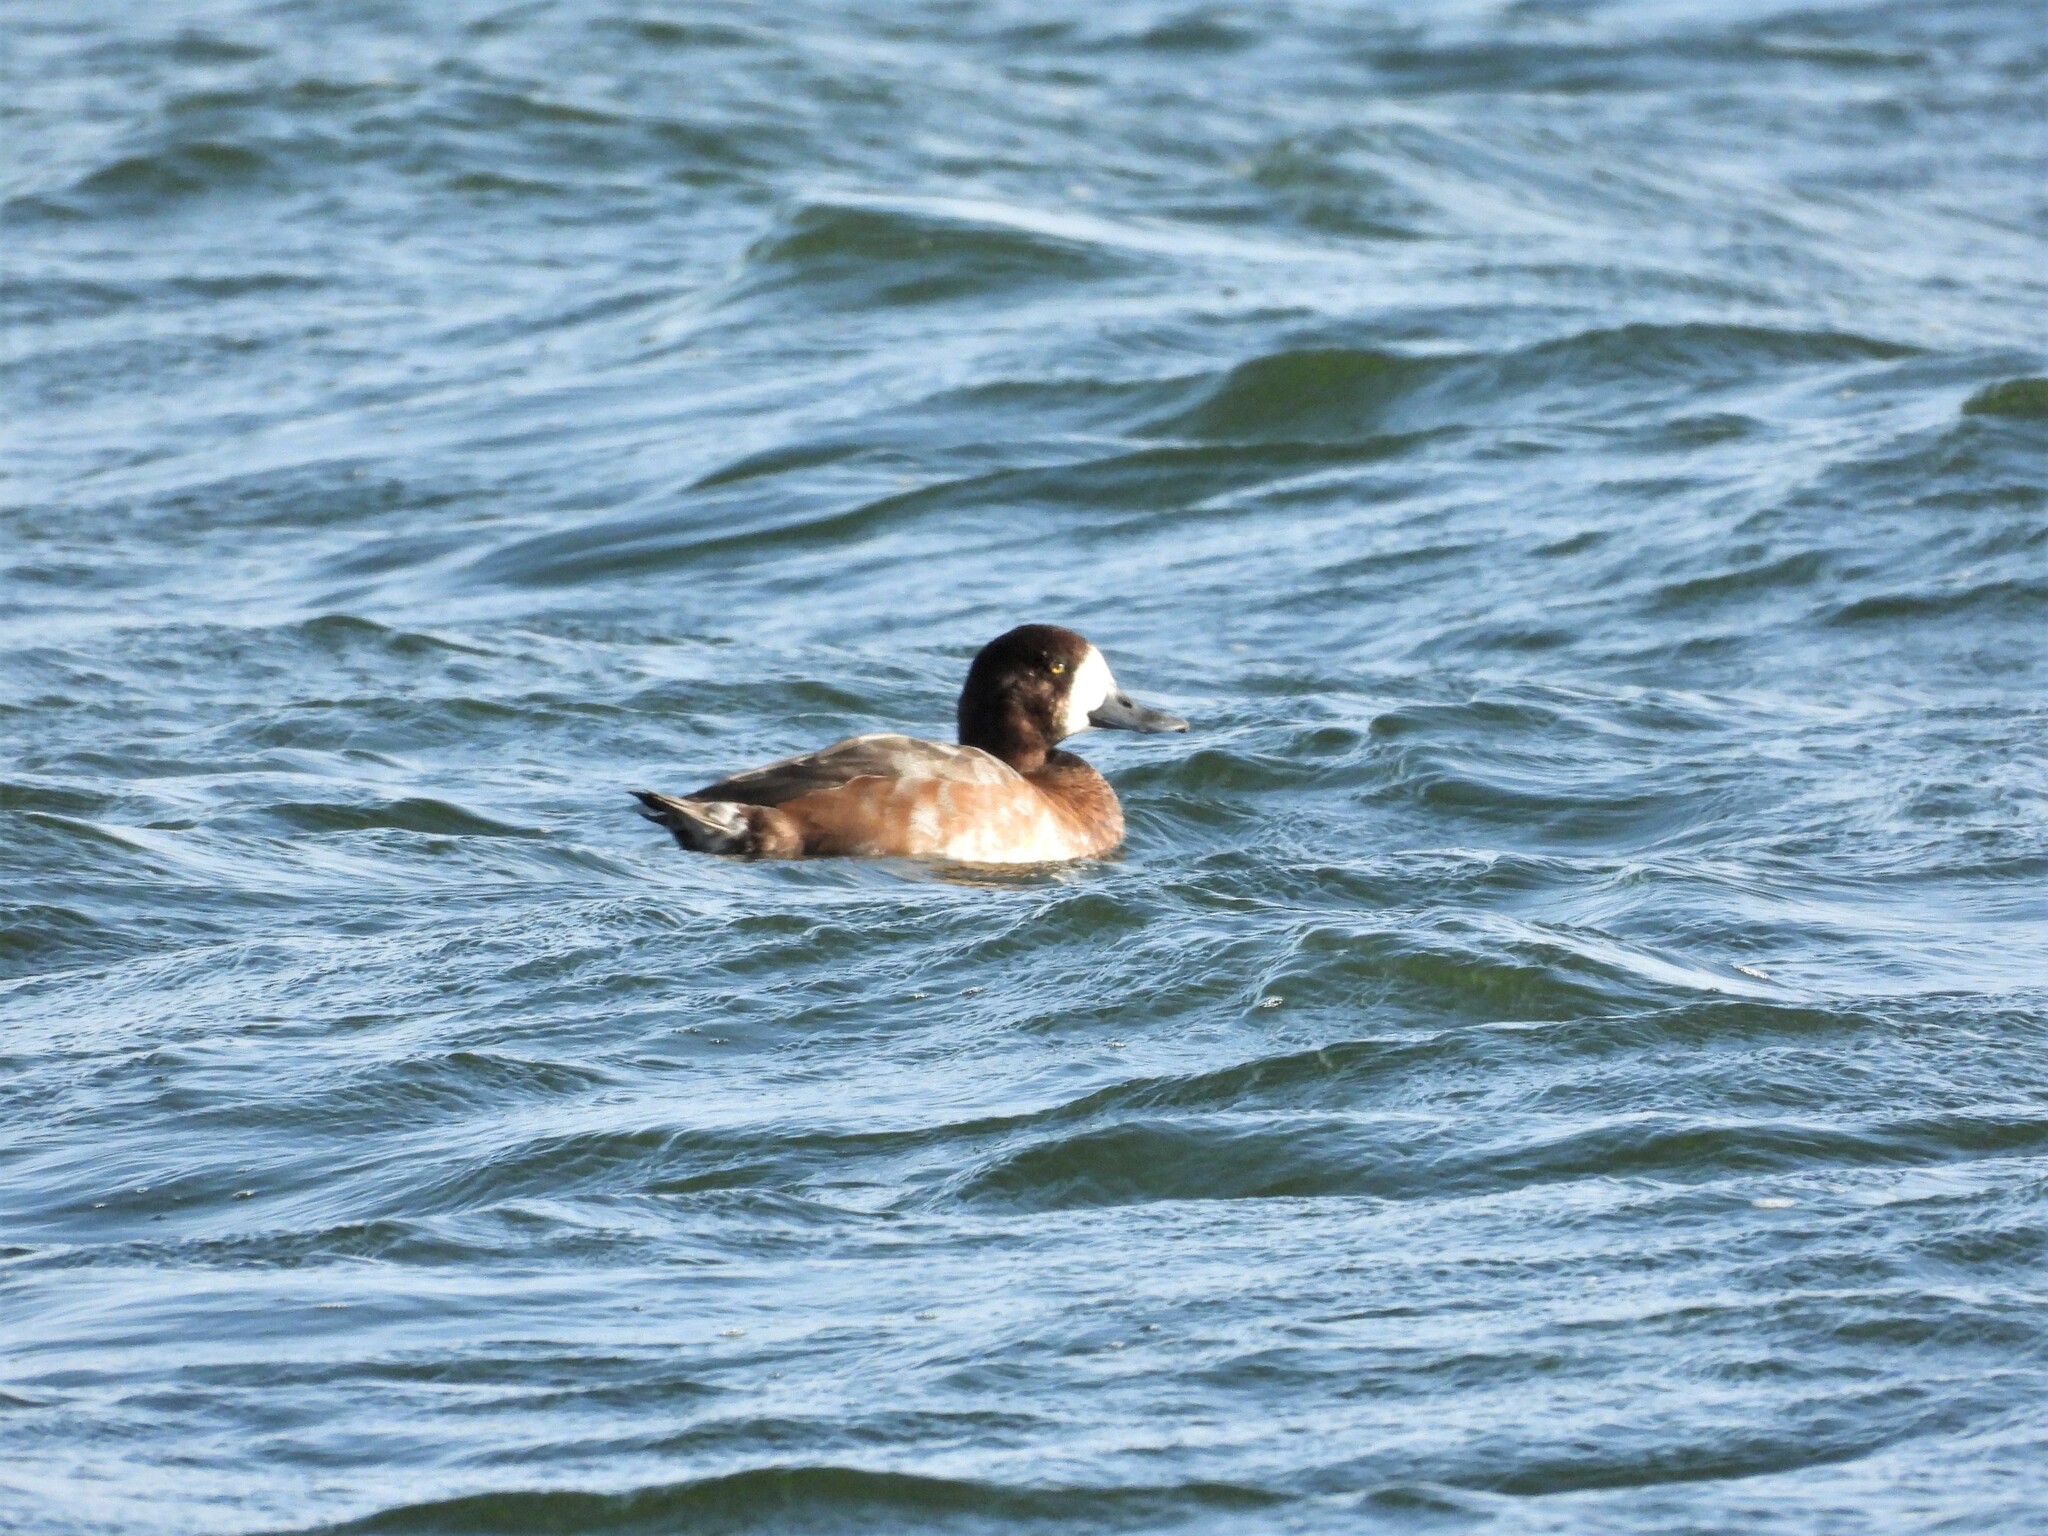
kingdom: Animalia
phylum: Chordata
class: Aves
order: Anseriformes
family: Anatidae
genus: Aythya
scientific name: Aythya marila
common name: Greater scaup
